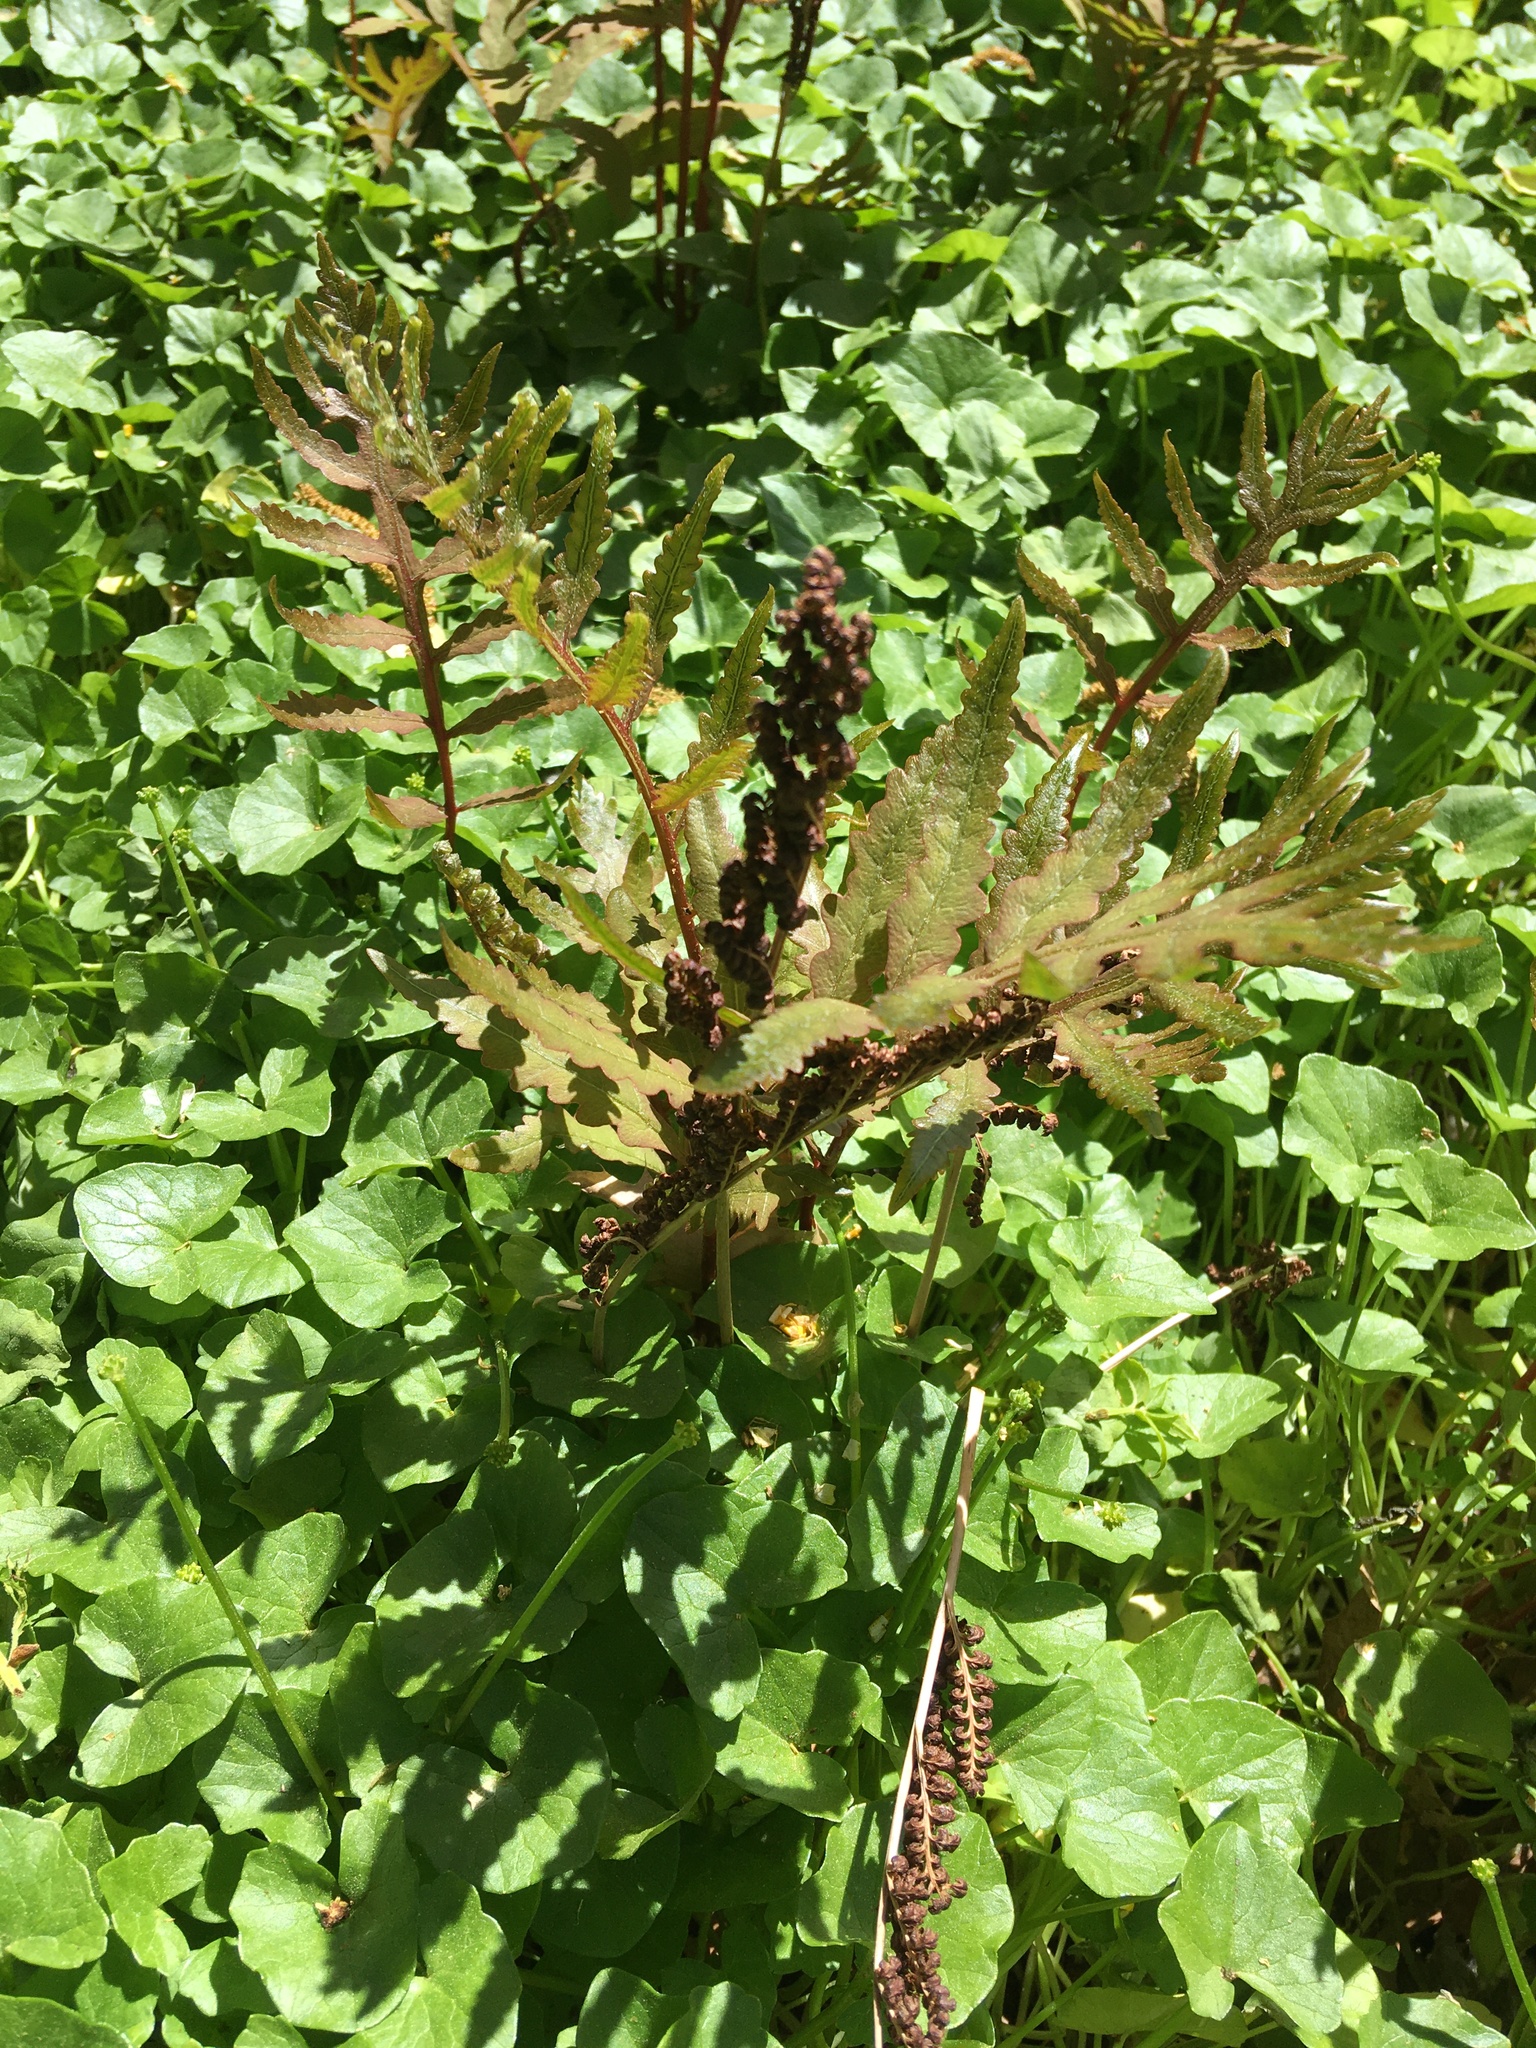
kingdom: Plantae
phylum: Tracheophyta
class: Polypodiopsida
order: Polypodiales
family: Onocleaceae
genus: Onoclea
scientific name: Onoclea sensibilis
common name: Sensitive fern
